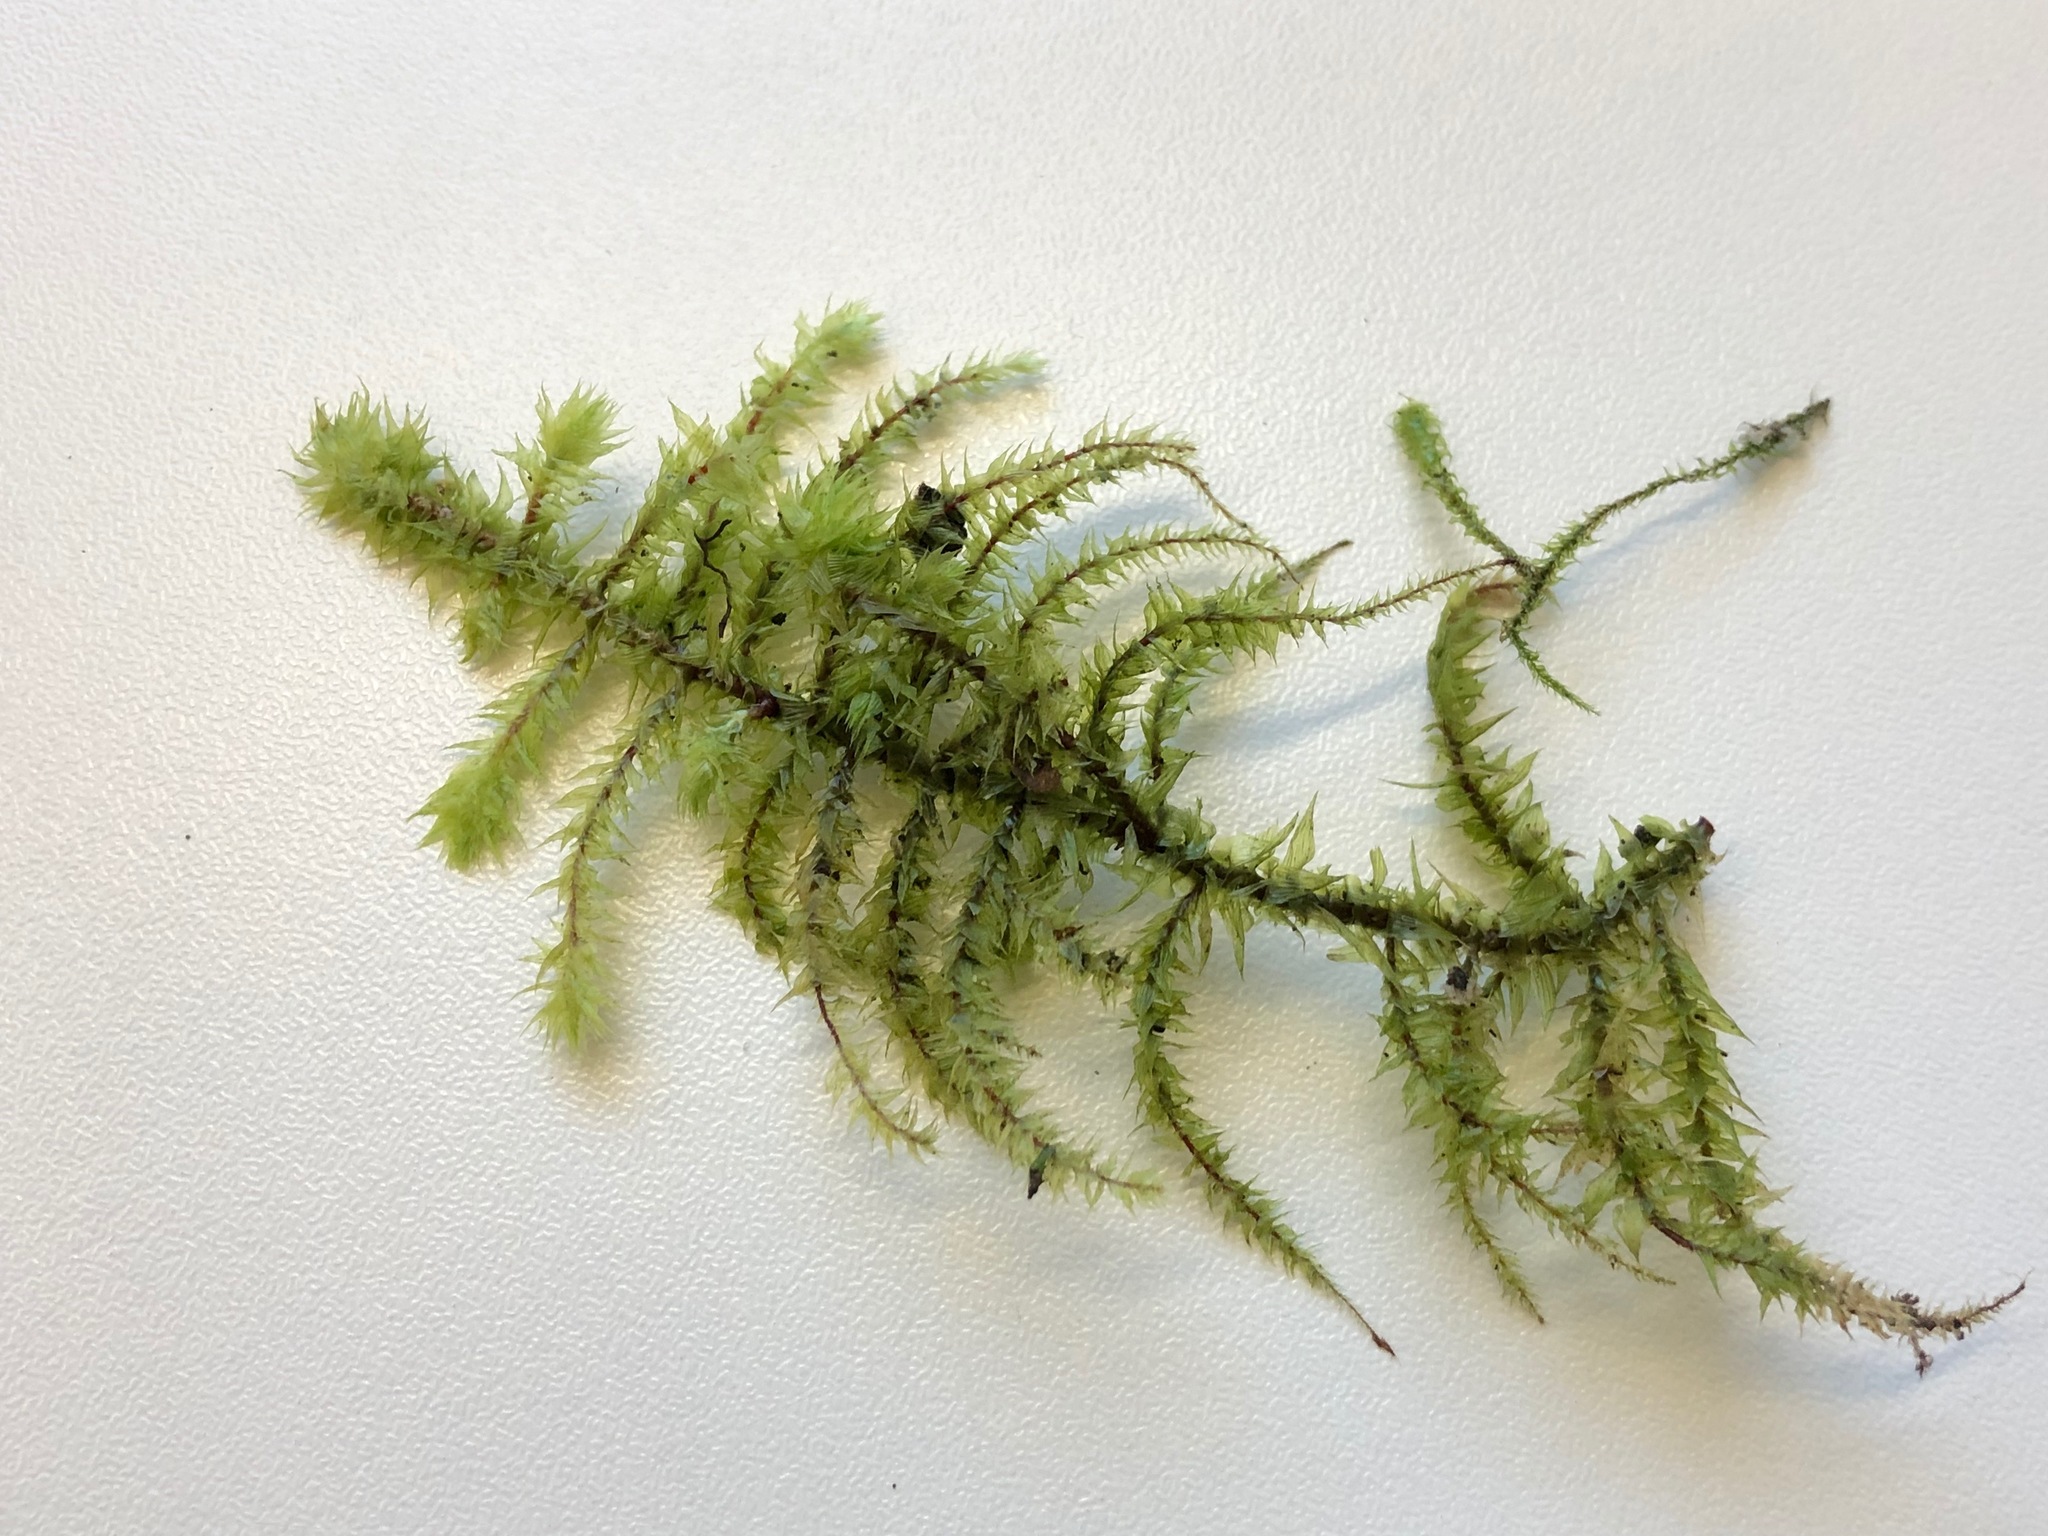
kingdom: Plantae
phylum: Bryophyta
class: Bryopsida
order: Hypnales
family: Hylocomiaceae
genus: Hylocomiadelphus
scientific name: Hylocomiadelphus triquetrus
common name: Rough goose neck moss
